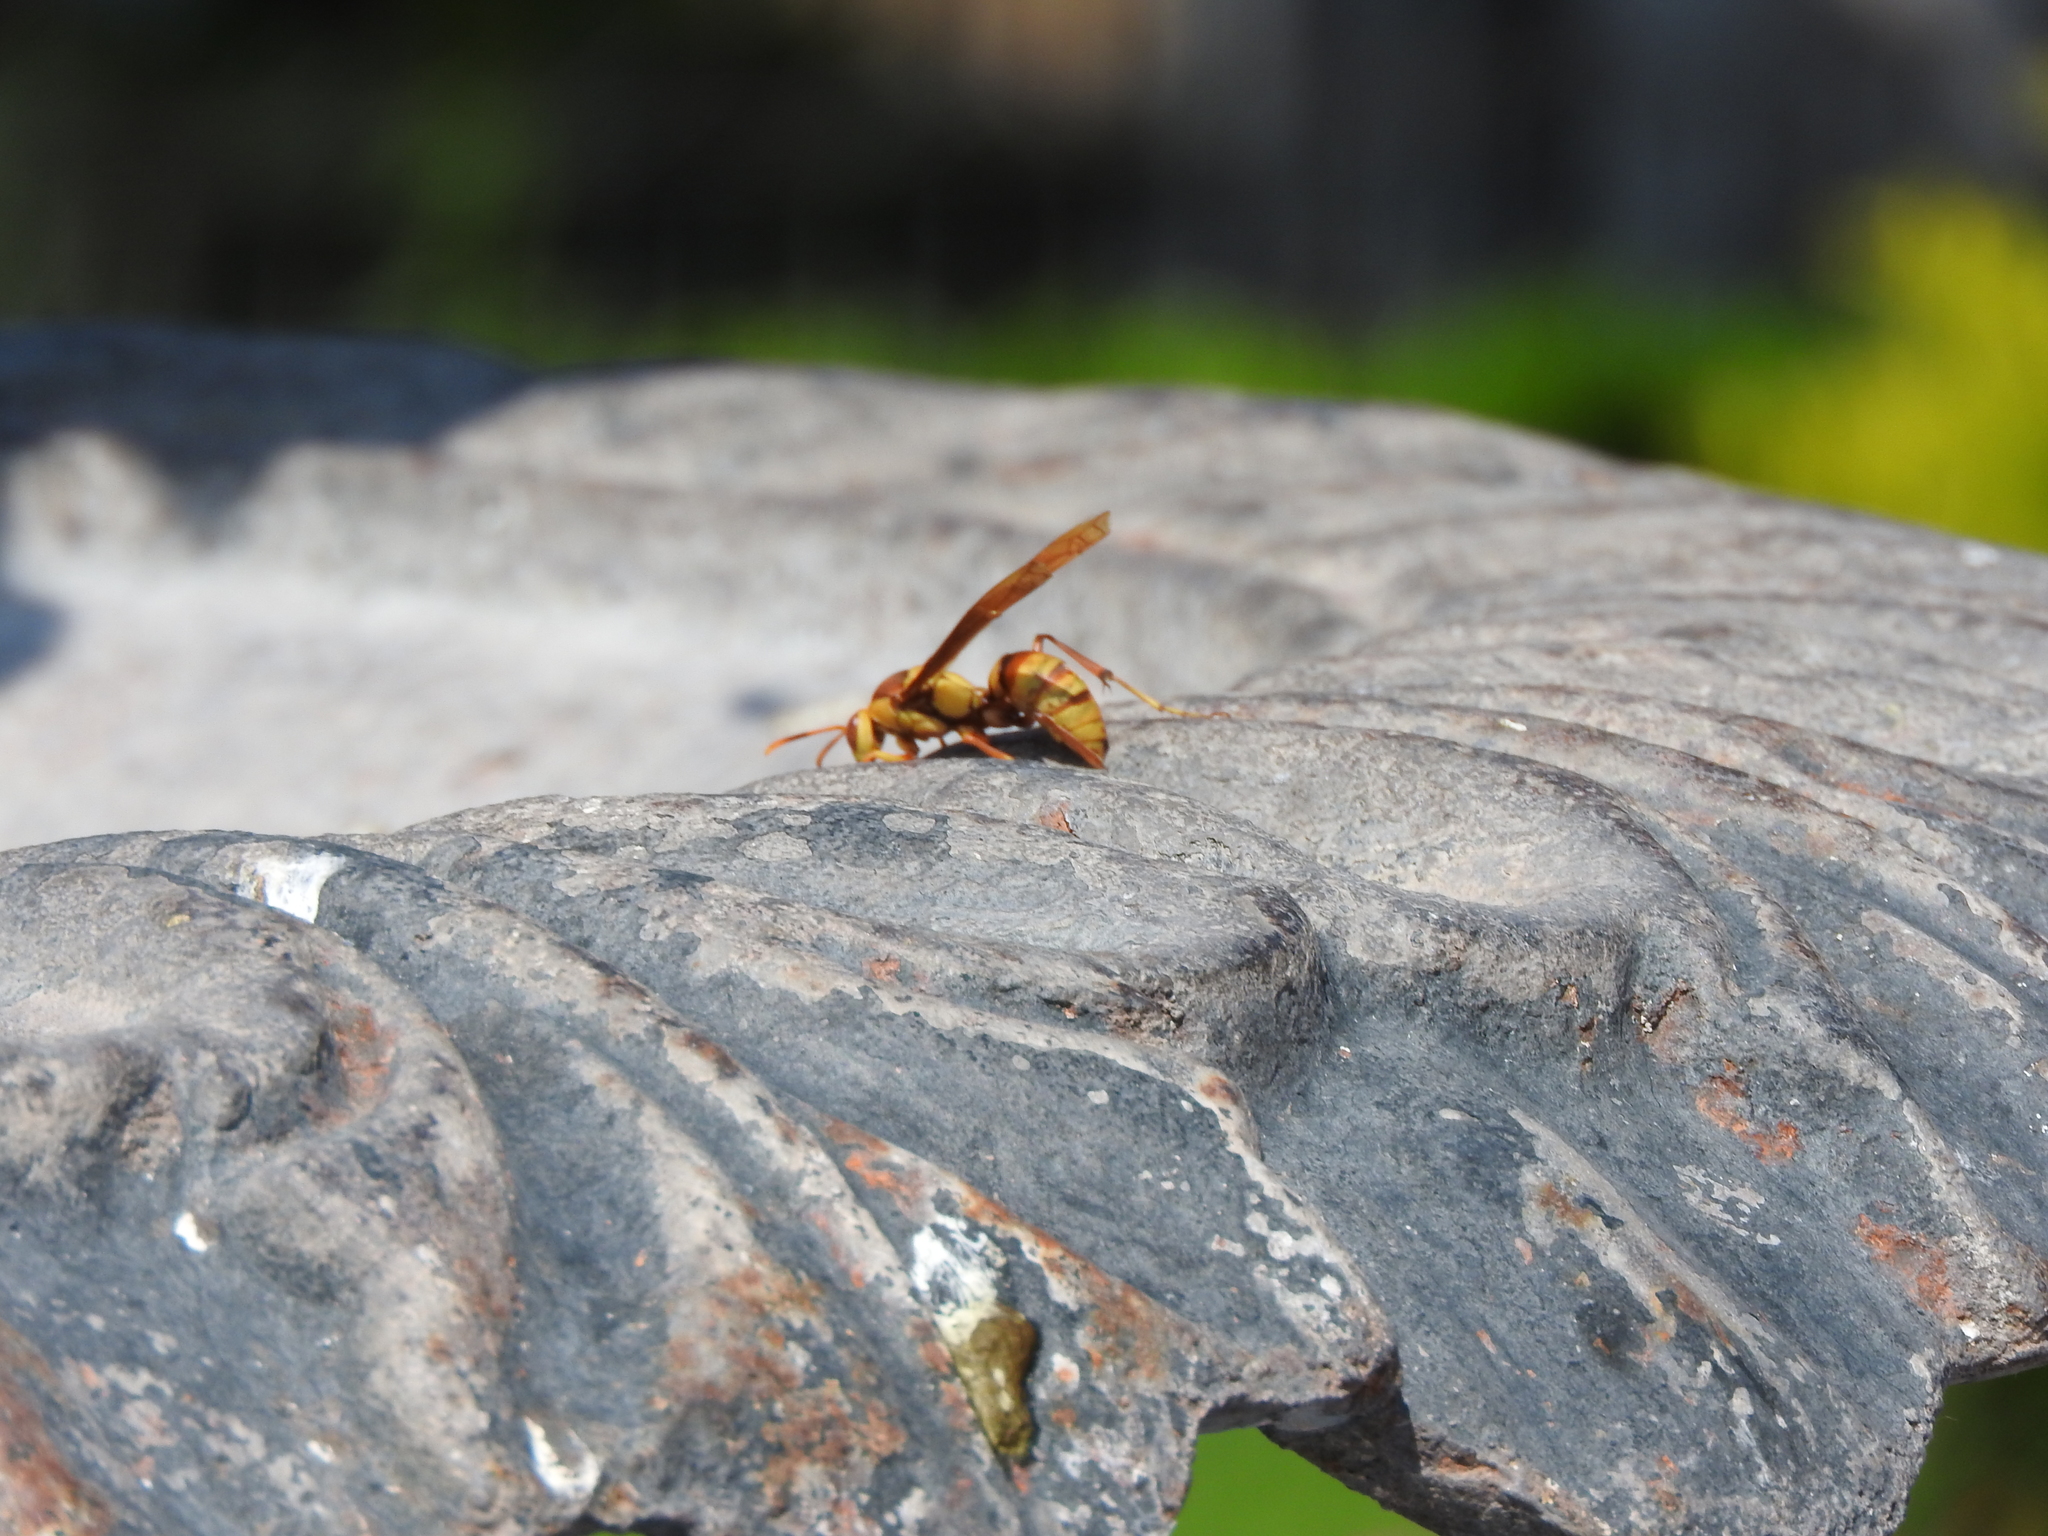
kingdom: Animalia
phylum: Arthropoda
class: Insecta
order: Hymenoptera
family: Eumenidae
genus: Polistes
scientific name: Polistes major
